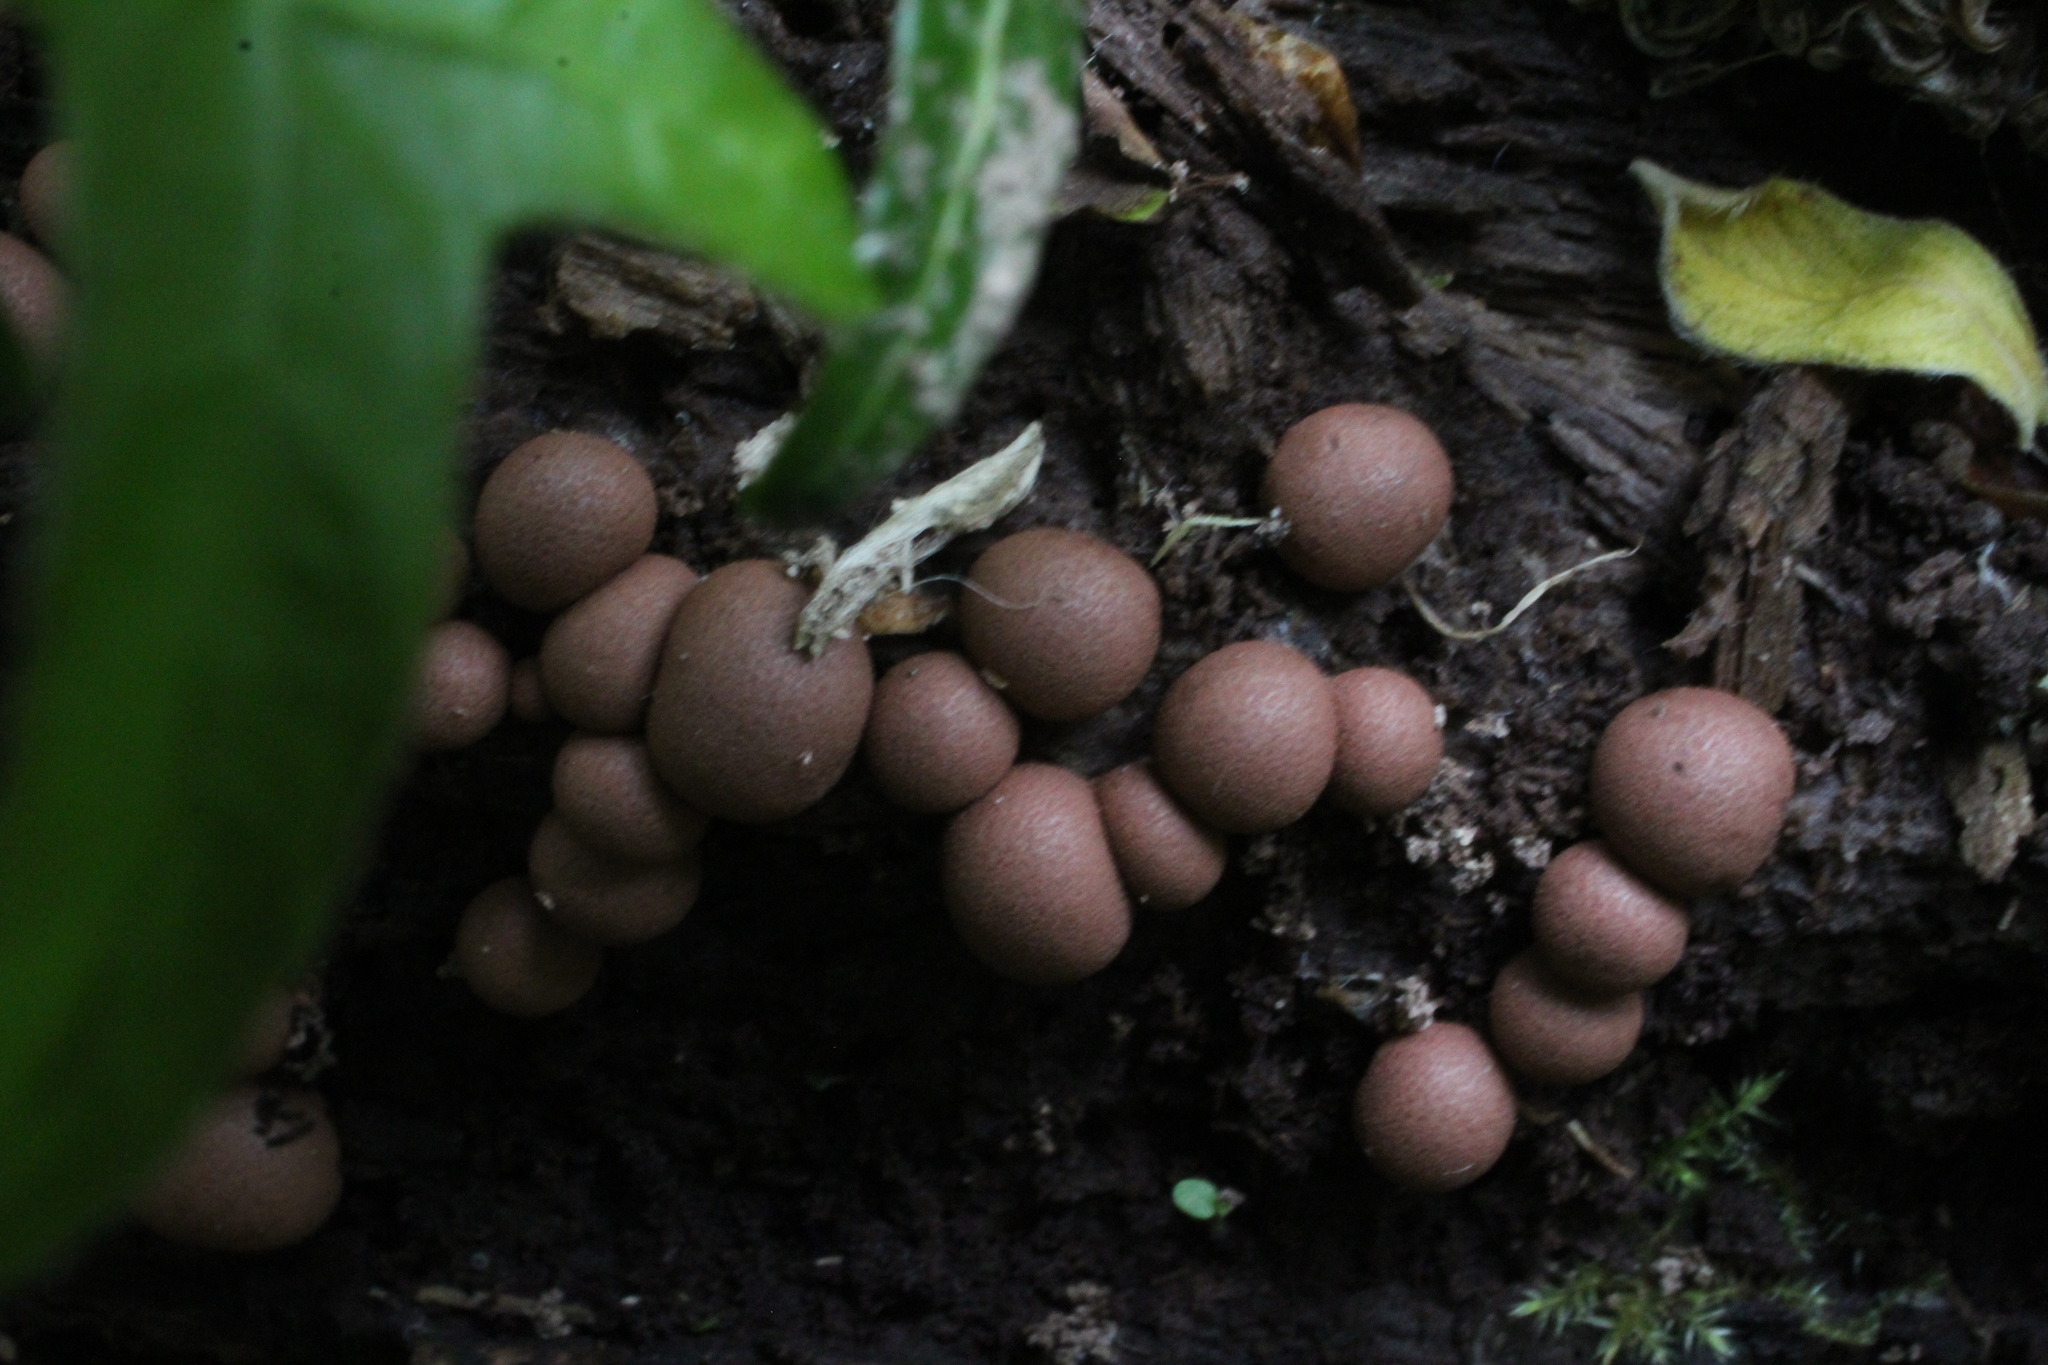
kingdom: Protozoa
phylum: Mycetozoa
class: Myxomycetes
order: Cribrariales
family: Tubiferaceae
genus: Lycogala
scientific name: Lycogala epidendrum
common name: Wolf's milk
